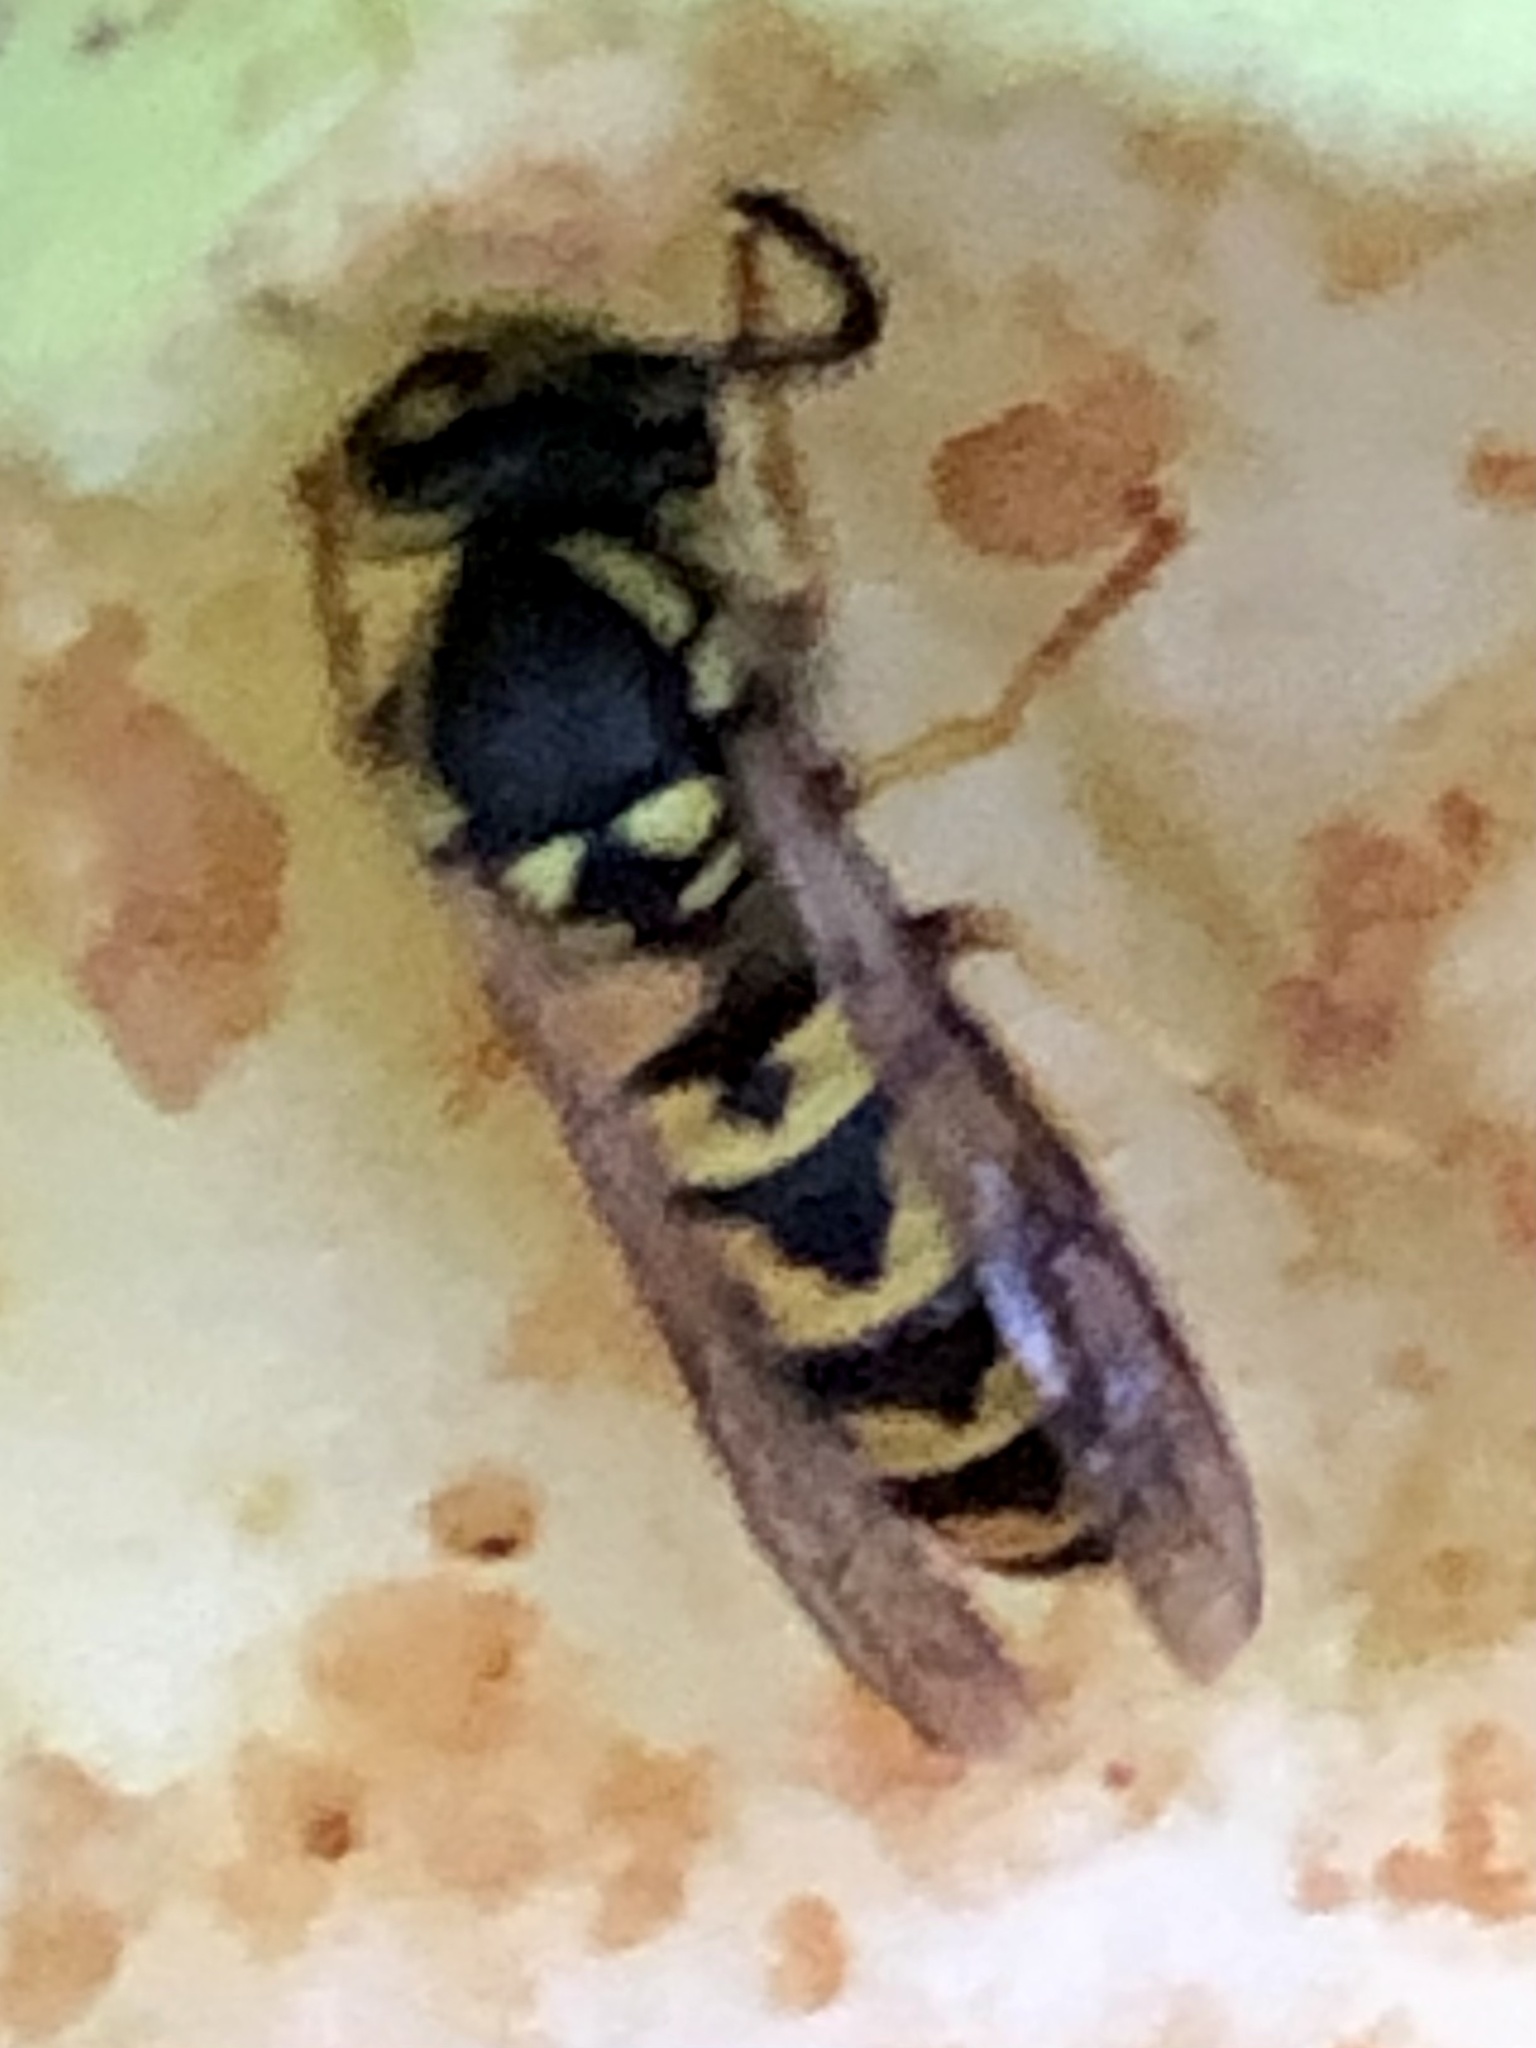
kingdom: Animalia
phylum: Arthropoda
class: Insecta
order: Hymenoptera
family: Vespidae
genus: Vespula
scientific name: Vespula germanica
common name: German wasp
